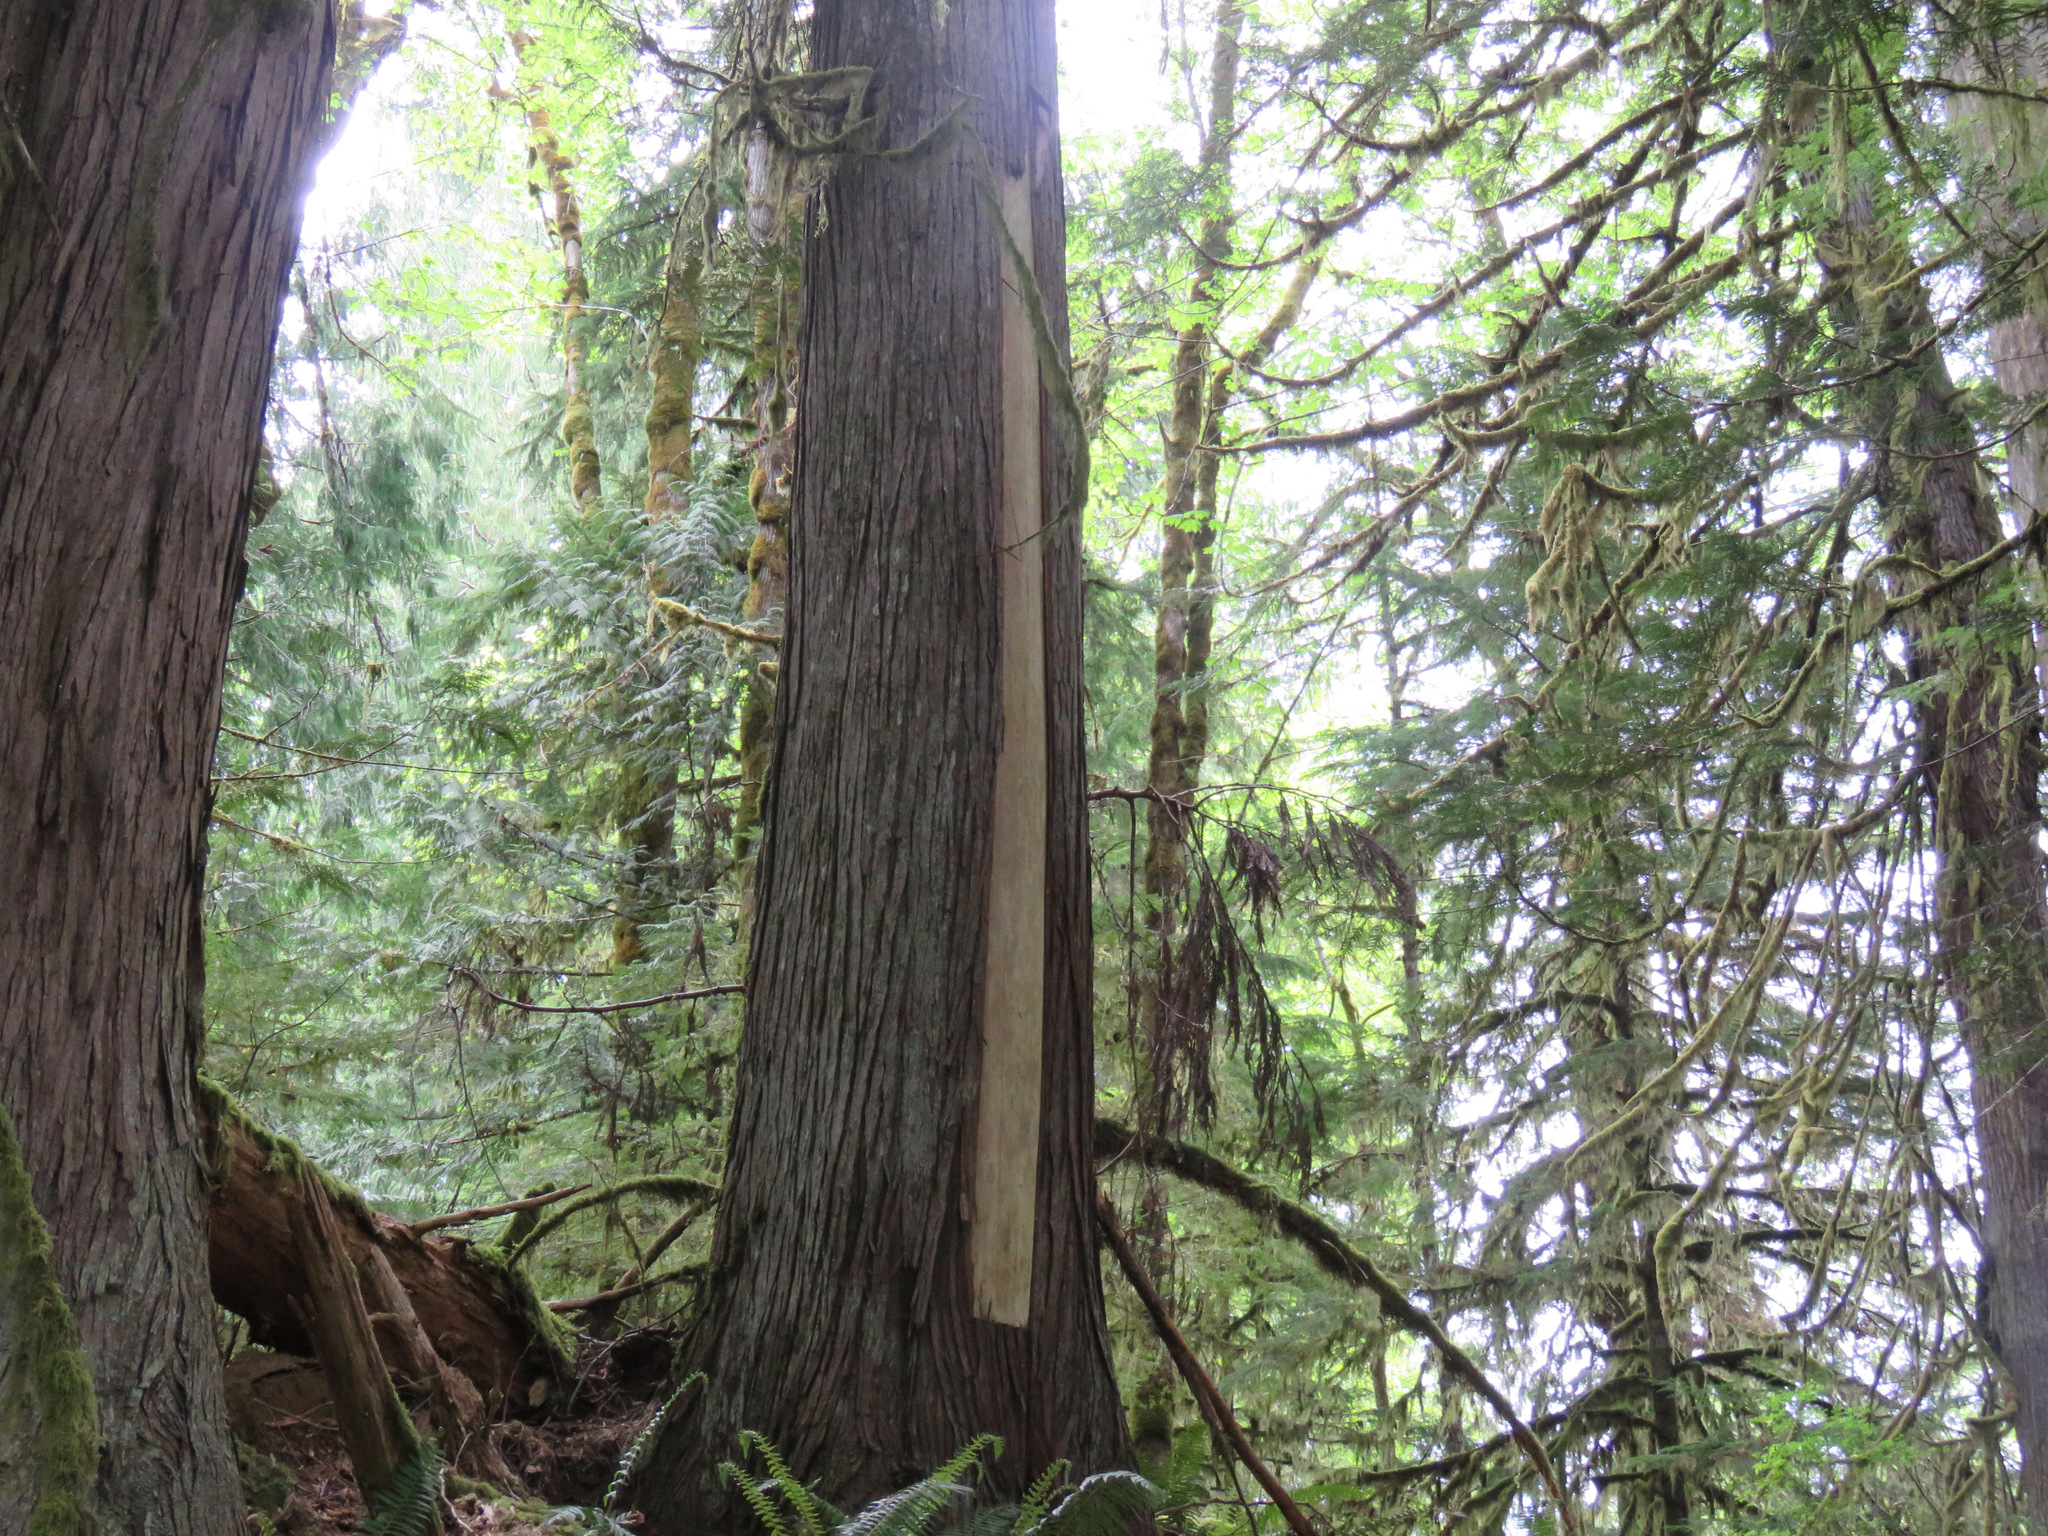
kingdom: Plantae
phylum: Tracheophyta
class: Pinopsida
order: Pinales
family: Cupressaceae
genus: Thuja
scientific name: Thuja plicata
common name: Western red-cedar
